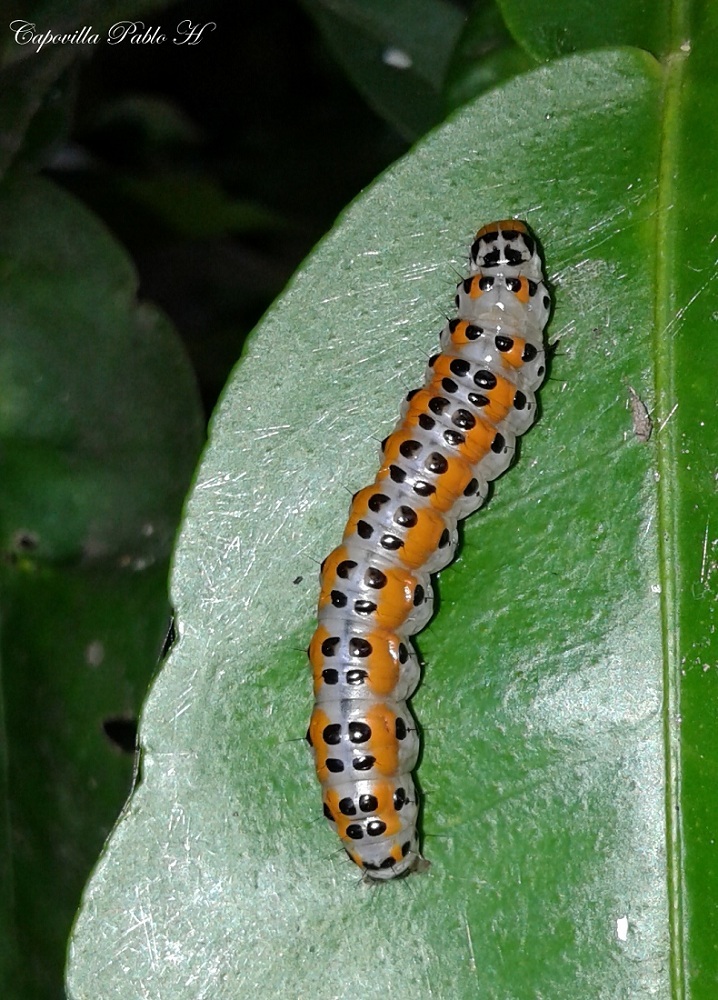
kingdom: Animalia
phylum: Arthropoda
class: Insecta
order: Lepidoptera
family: Crambidae
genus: Palpita
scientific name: Palpita flegia
